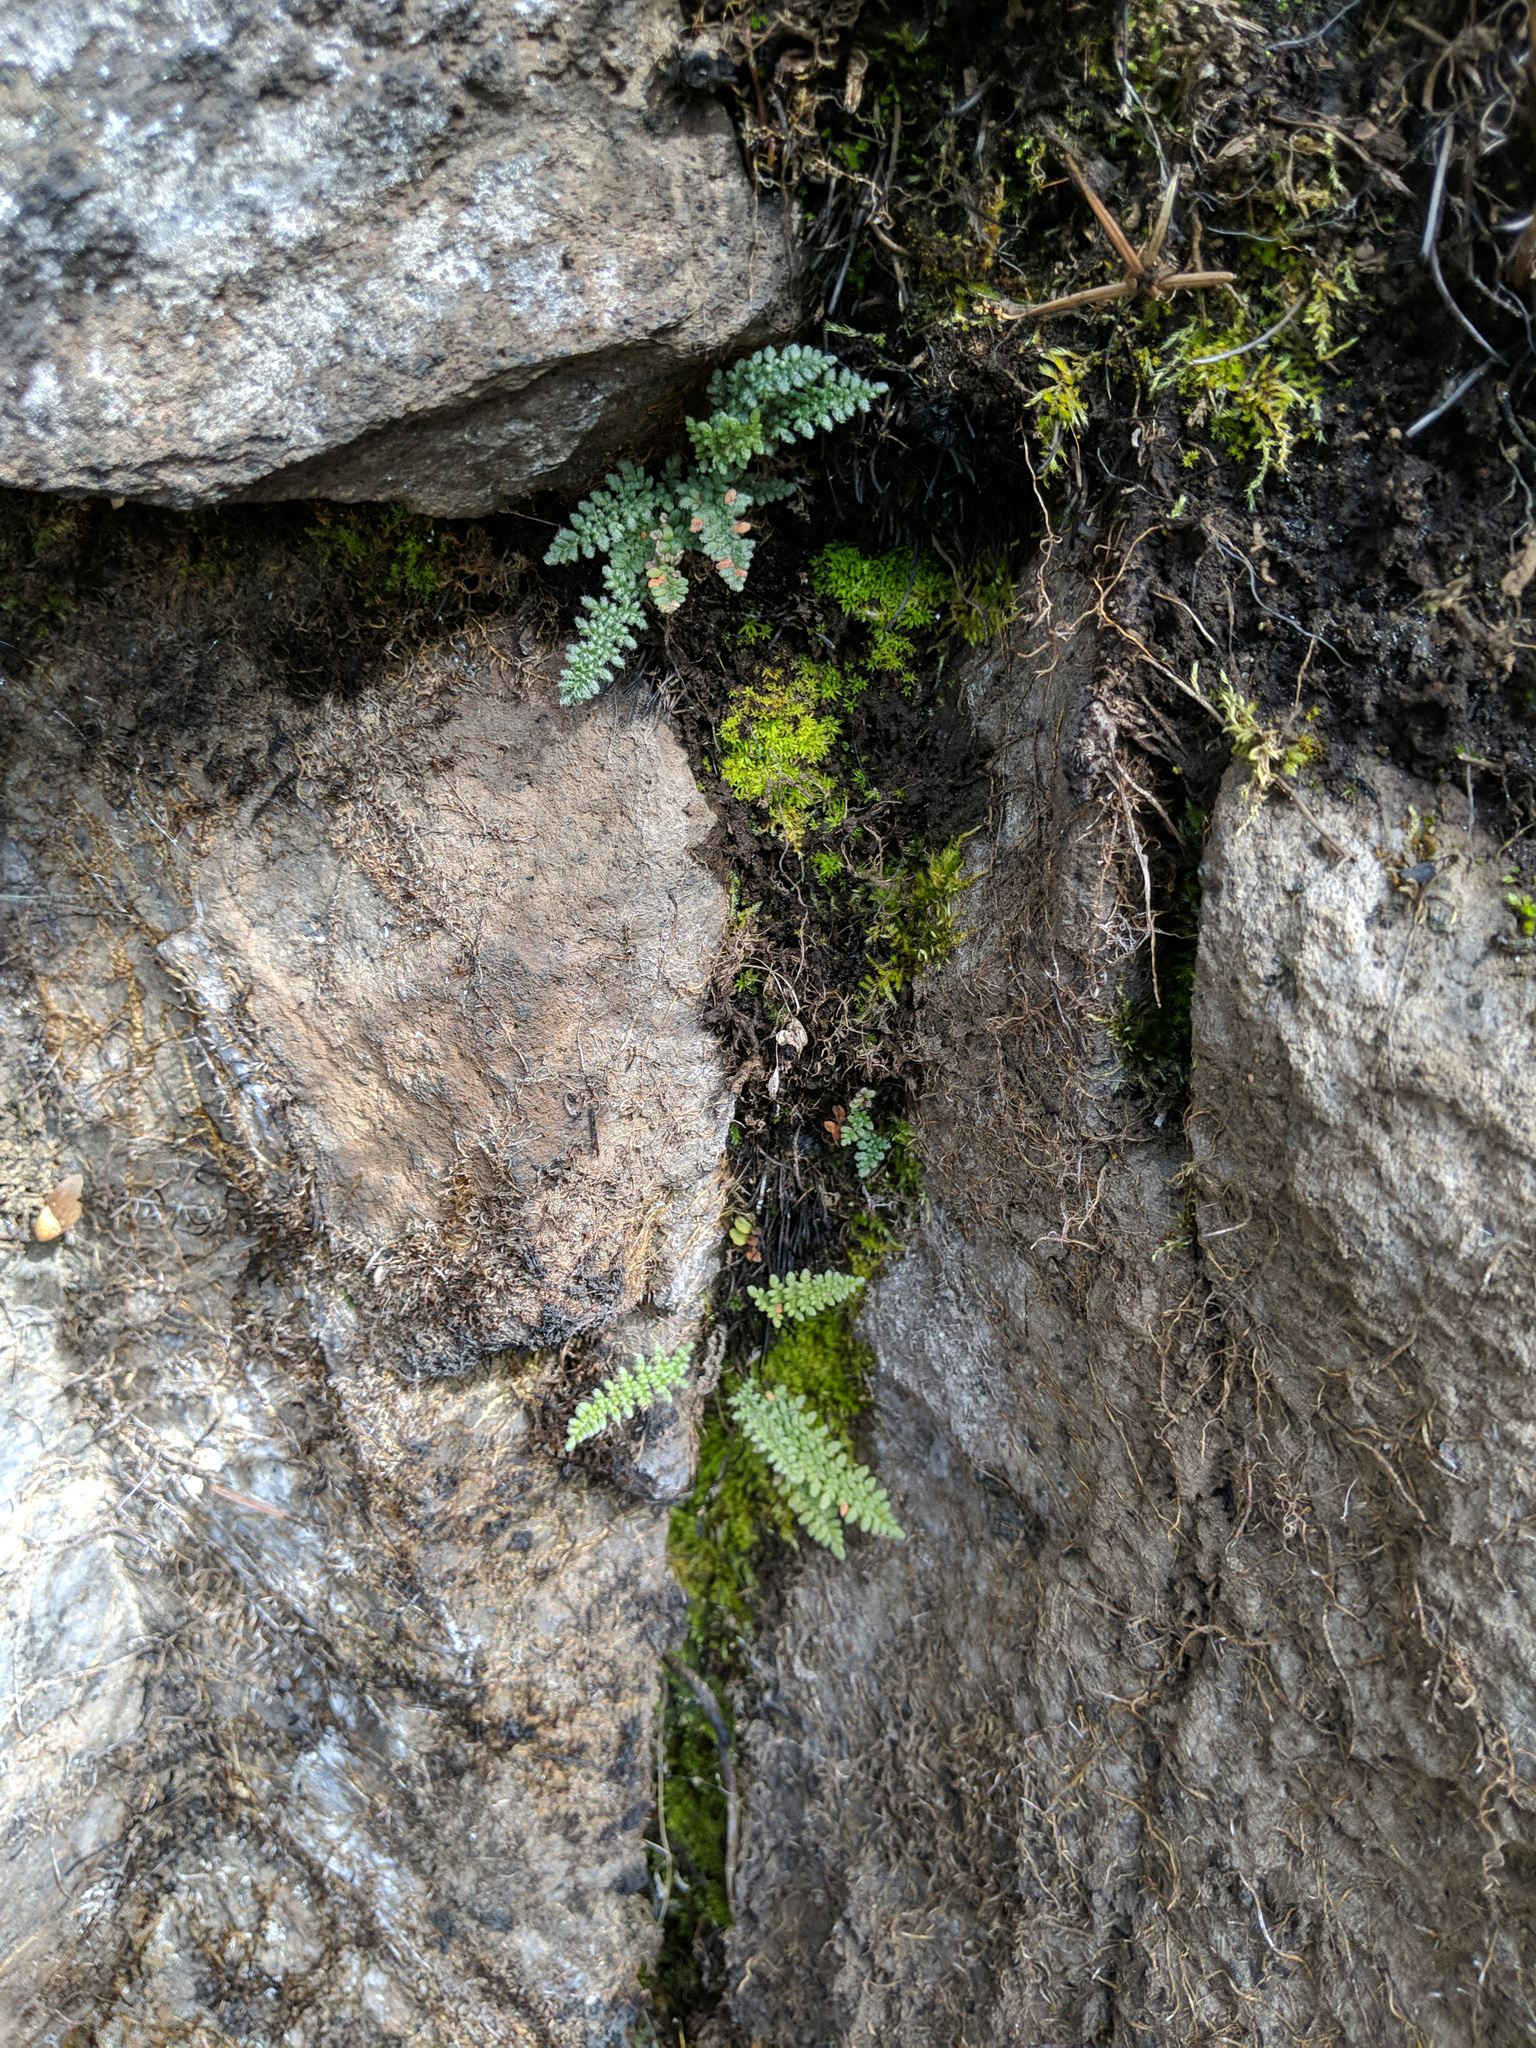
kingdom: Plantae
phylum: Tracheophyta
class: Polypodiopsida
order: Polypodiales
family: Pteridaceae
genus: Myriopteris
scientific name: Myriopteris gracillima
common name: Lace fern
